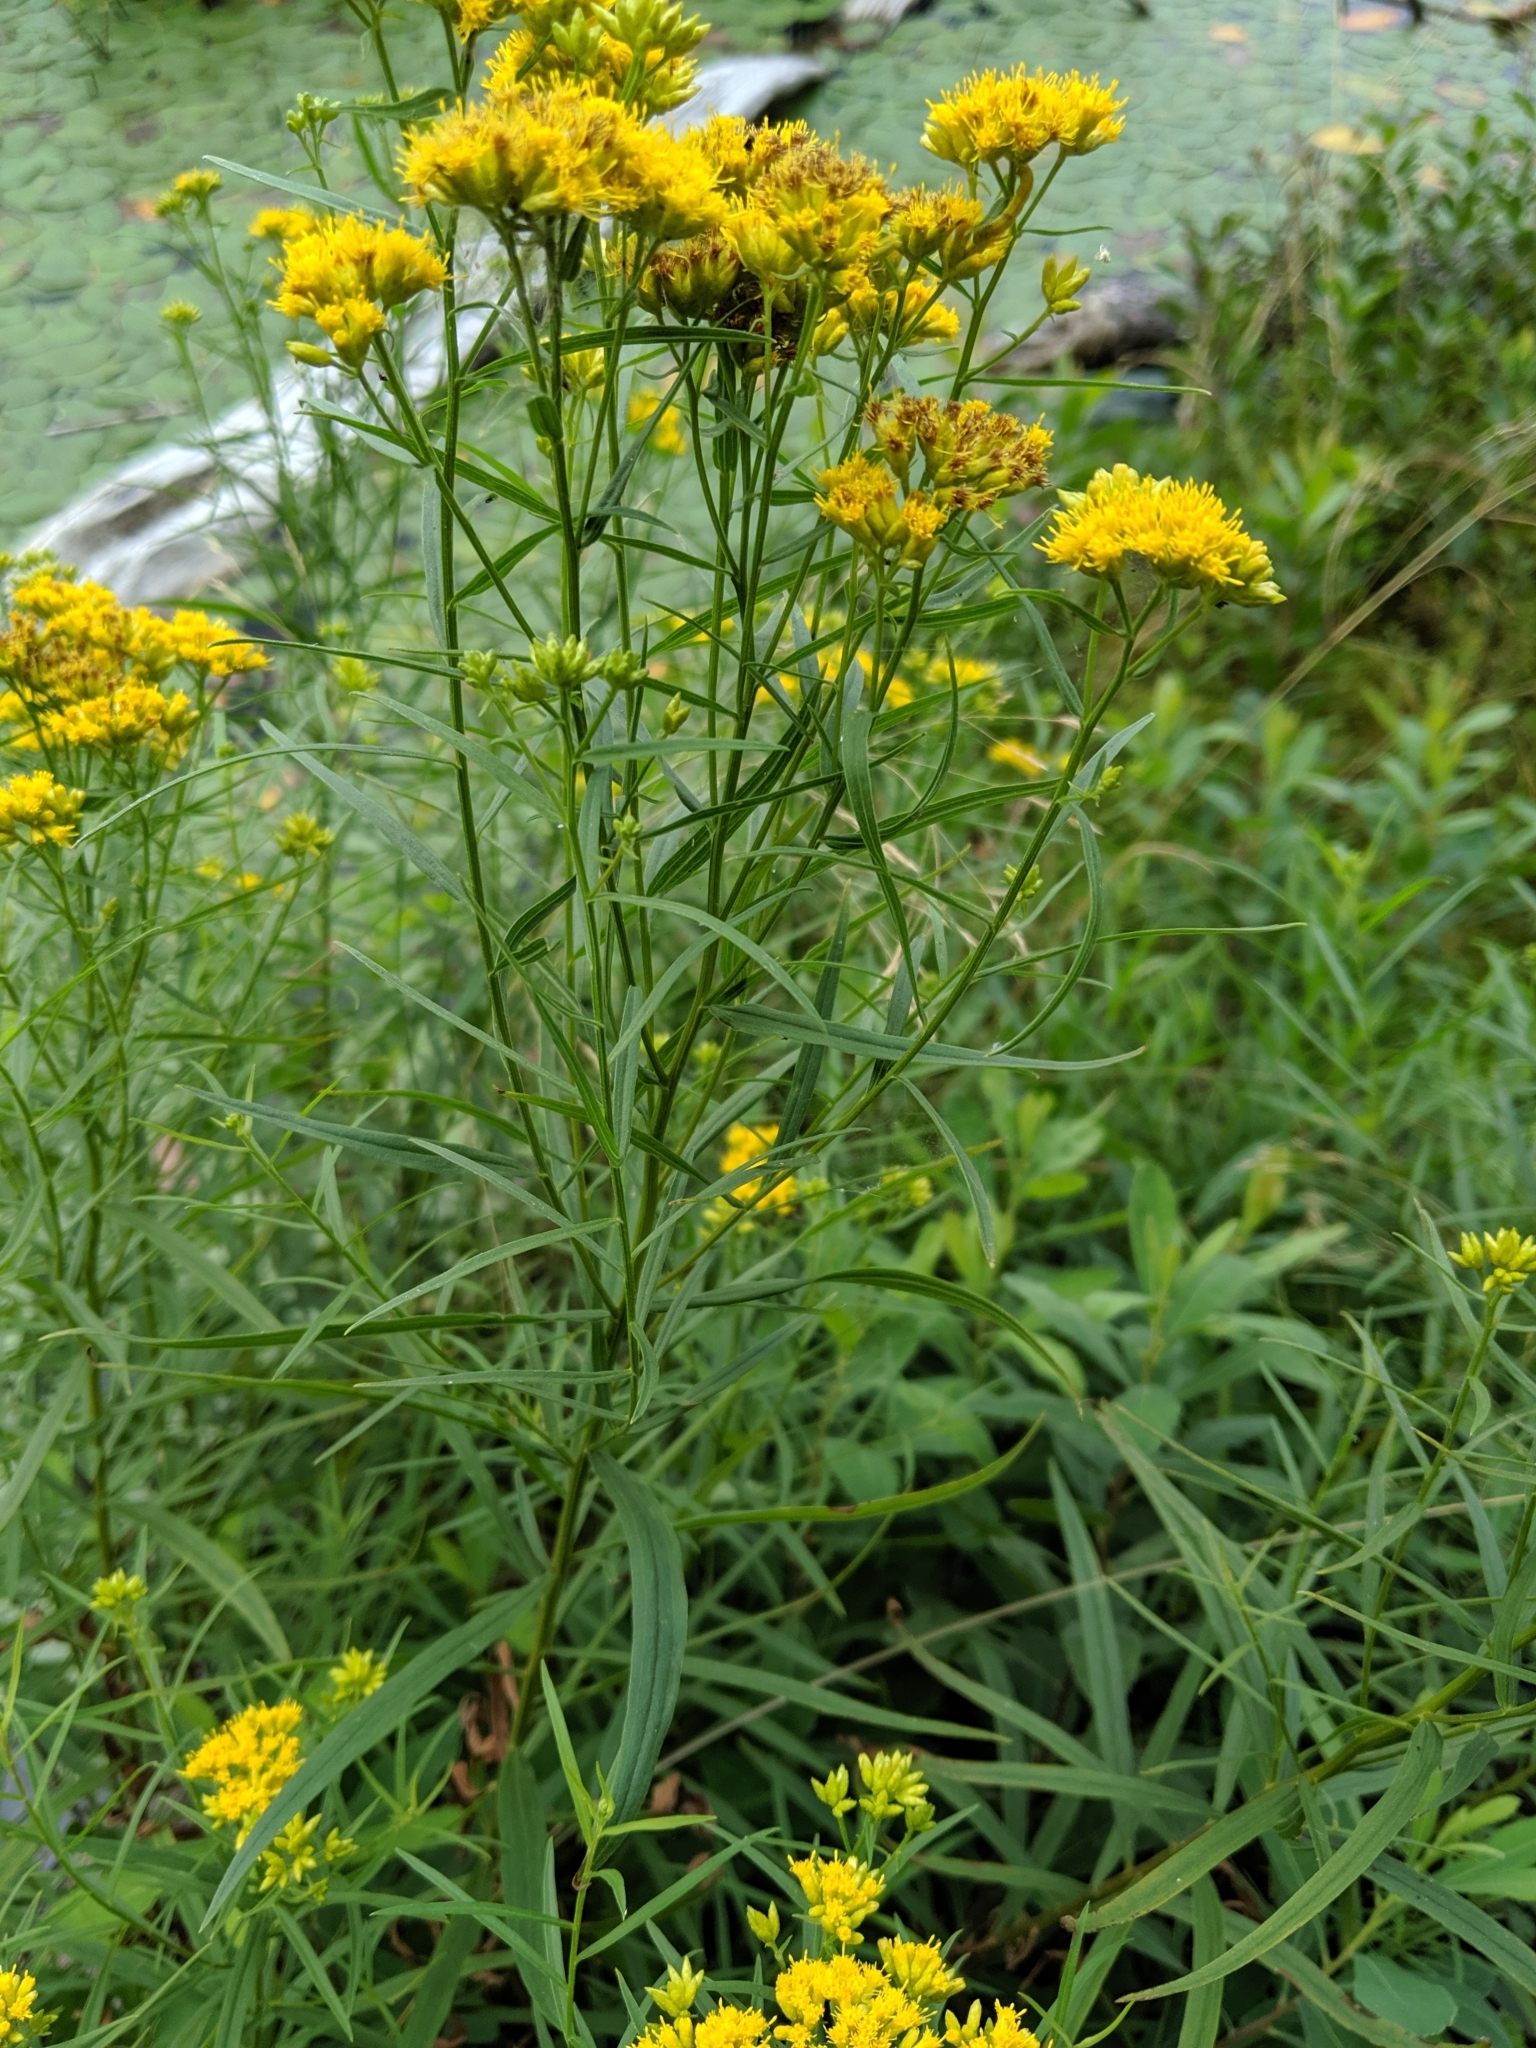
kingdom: Plantae
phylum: Tracheophyta
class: Magnoliopsida
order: Asterales
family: Asteraceae
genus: Euthamia
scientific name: Euthamia graminifolia
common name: Common goldentop
